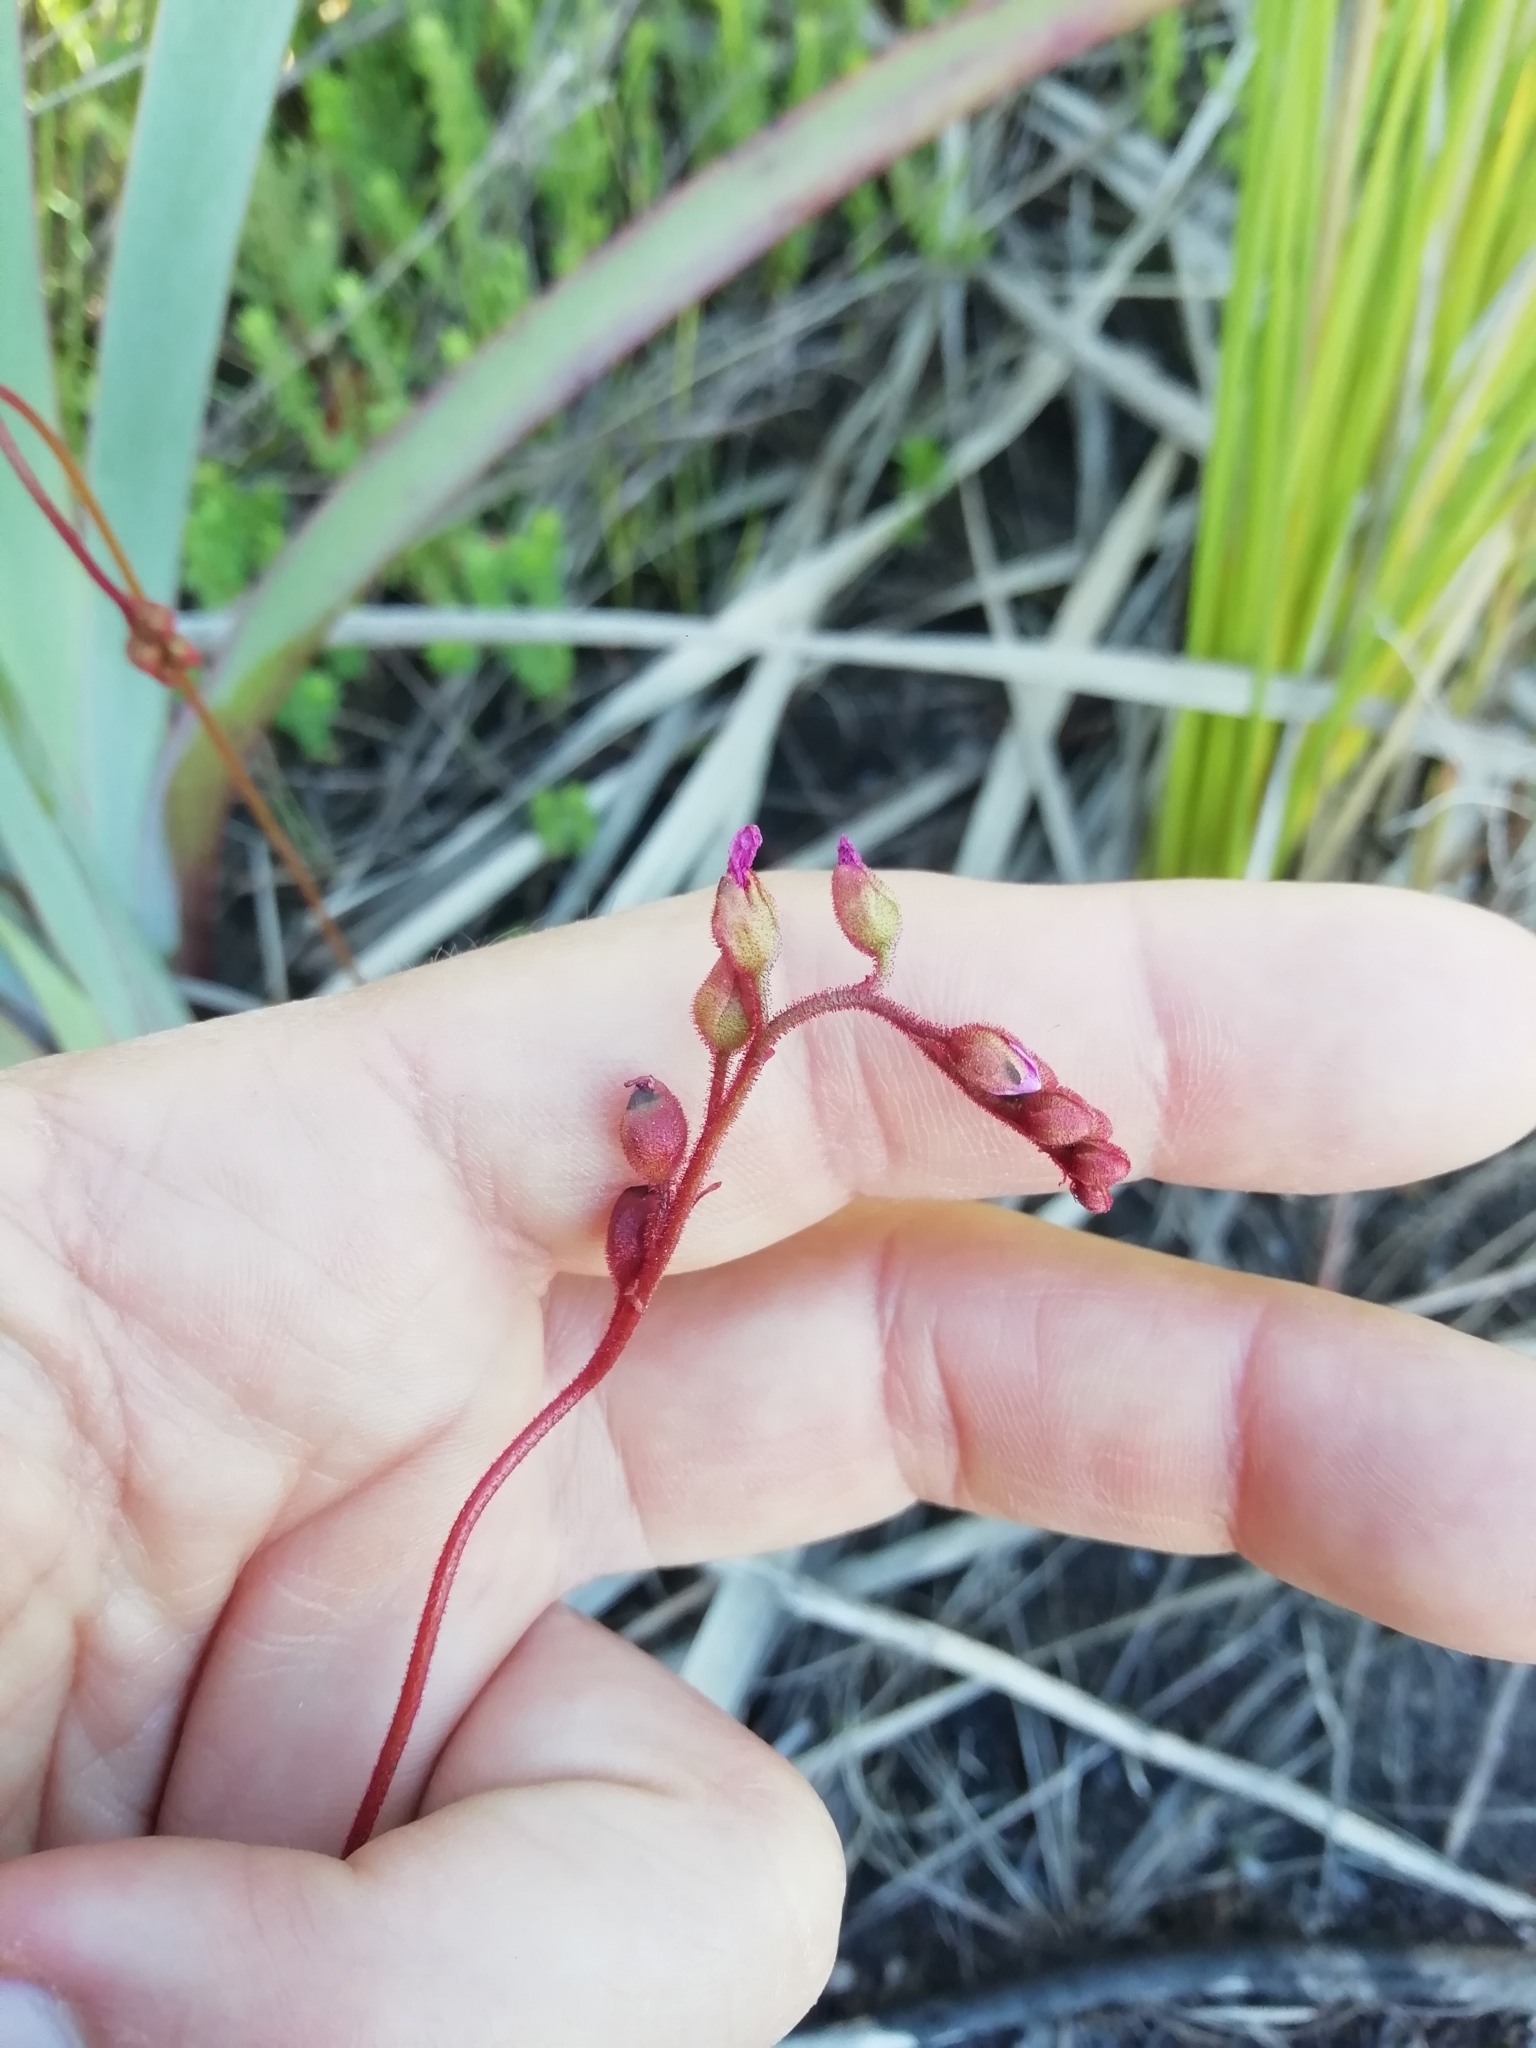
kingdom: Plantae
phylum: Tracheophyta
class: Magnoliopsida
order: Caryophyllales
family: Droseraceae
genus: Drosera
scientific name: Drosera aliciae
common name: Alice sundew
